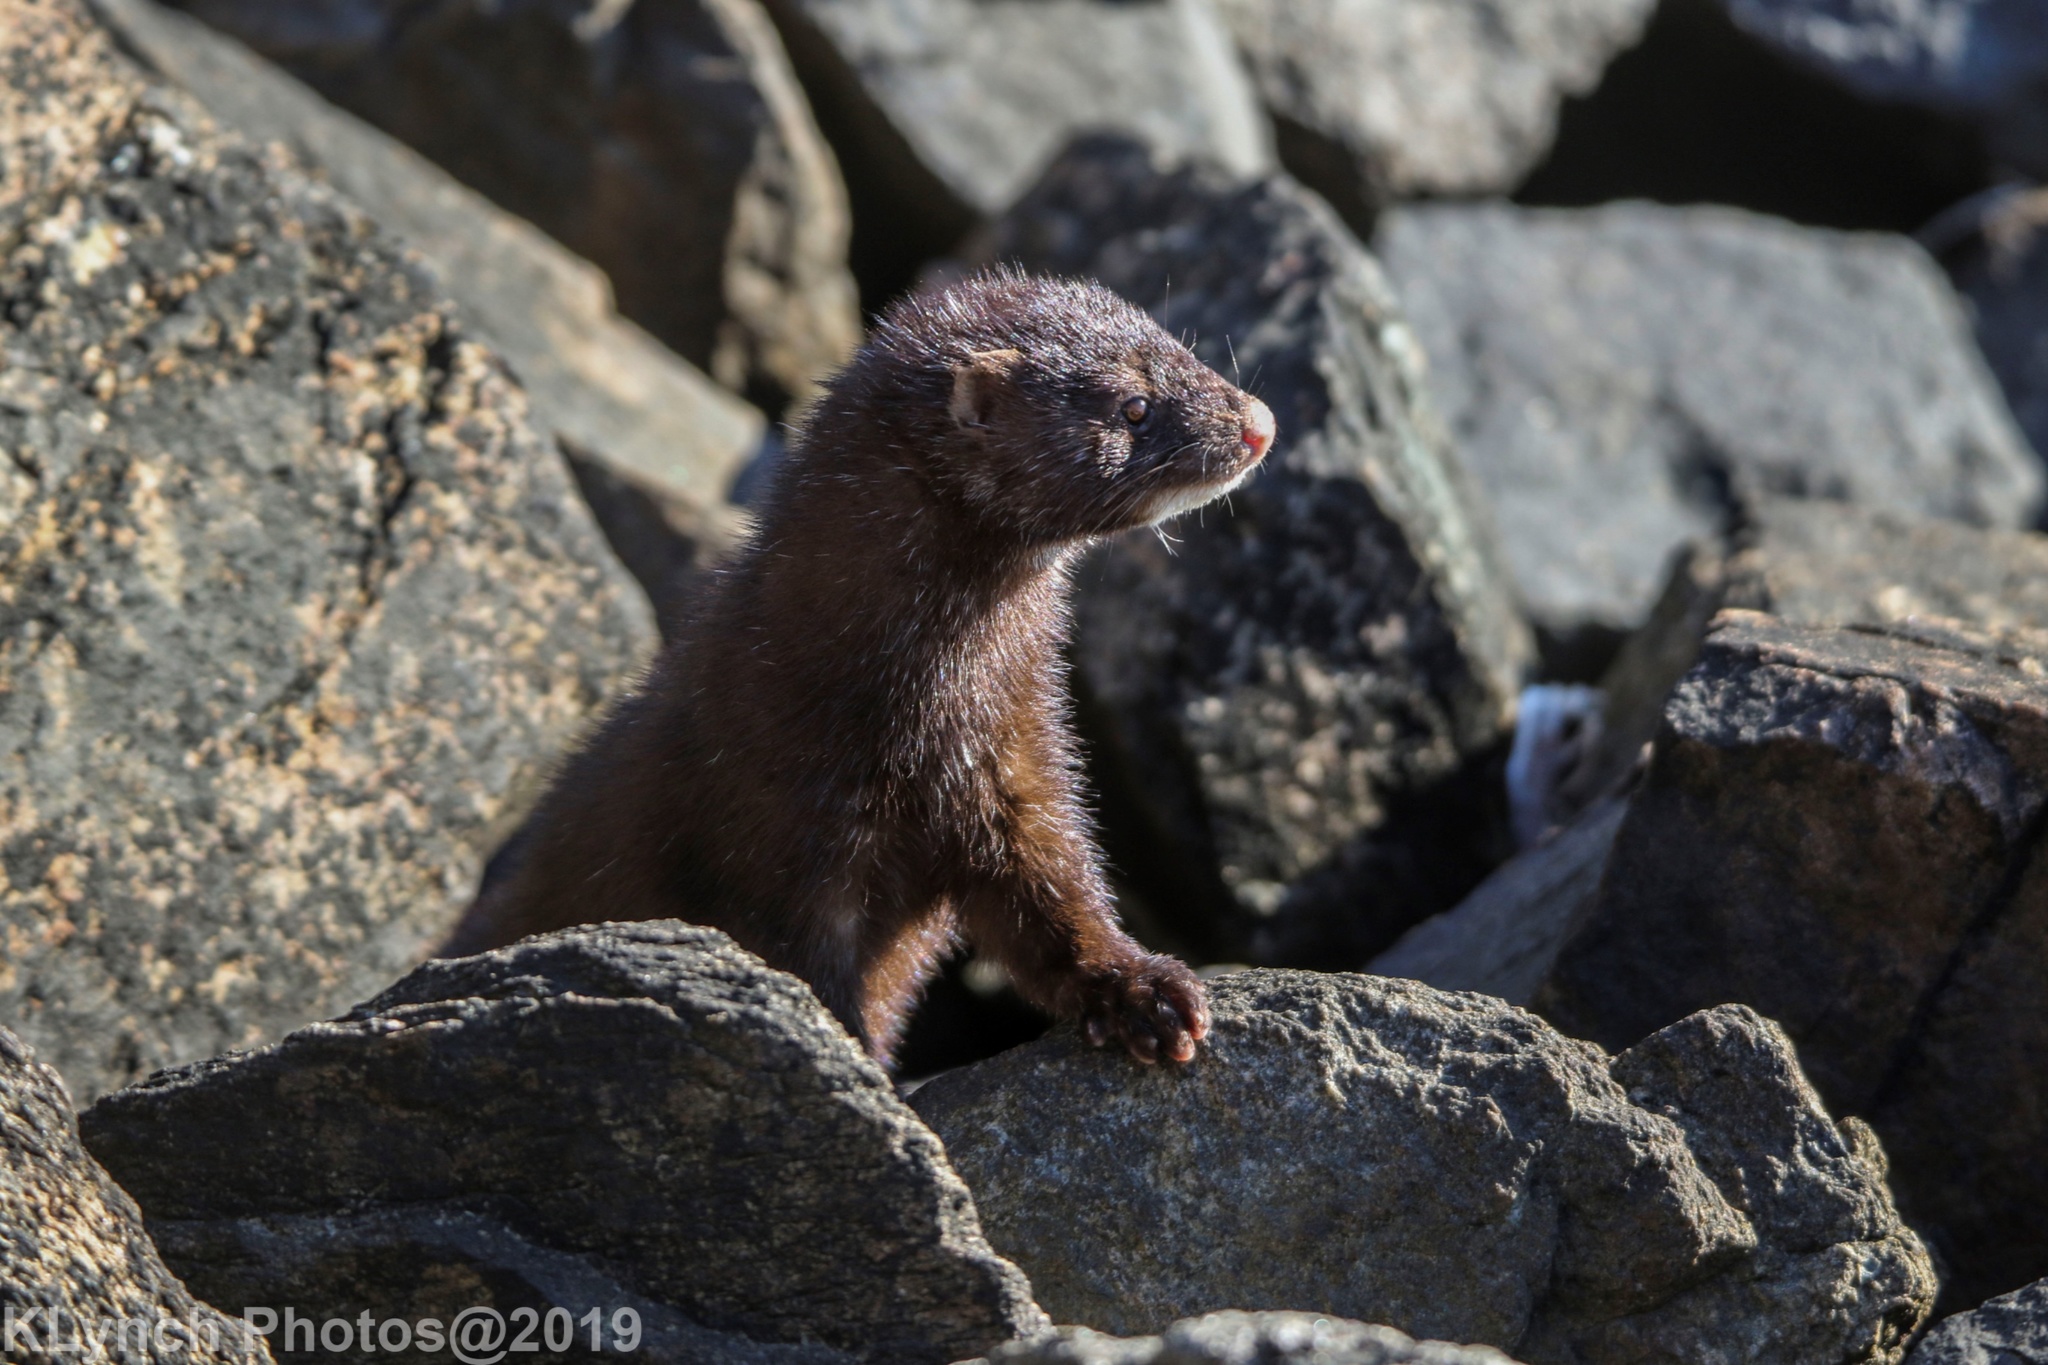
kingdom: Animalia
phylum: Chordata
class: Mammalia
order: Carnivora
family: Mustelidae
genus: Mustela
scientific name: Mustela
